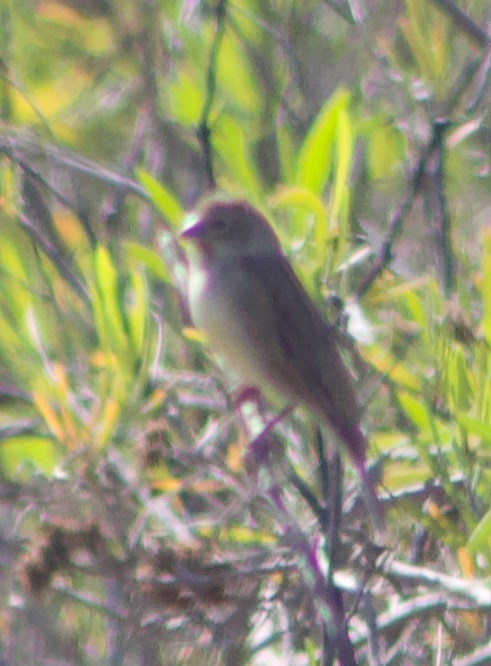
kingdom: Animalia
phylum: Chordata
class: Aves
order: Passeriformes
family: Thraupidae
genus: Sicalis
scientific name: Sicalis luteola
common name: Grassland yellow-finch
